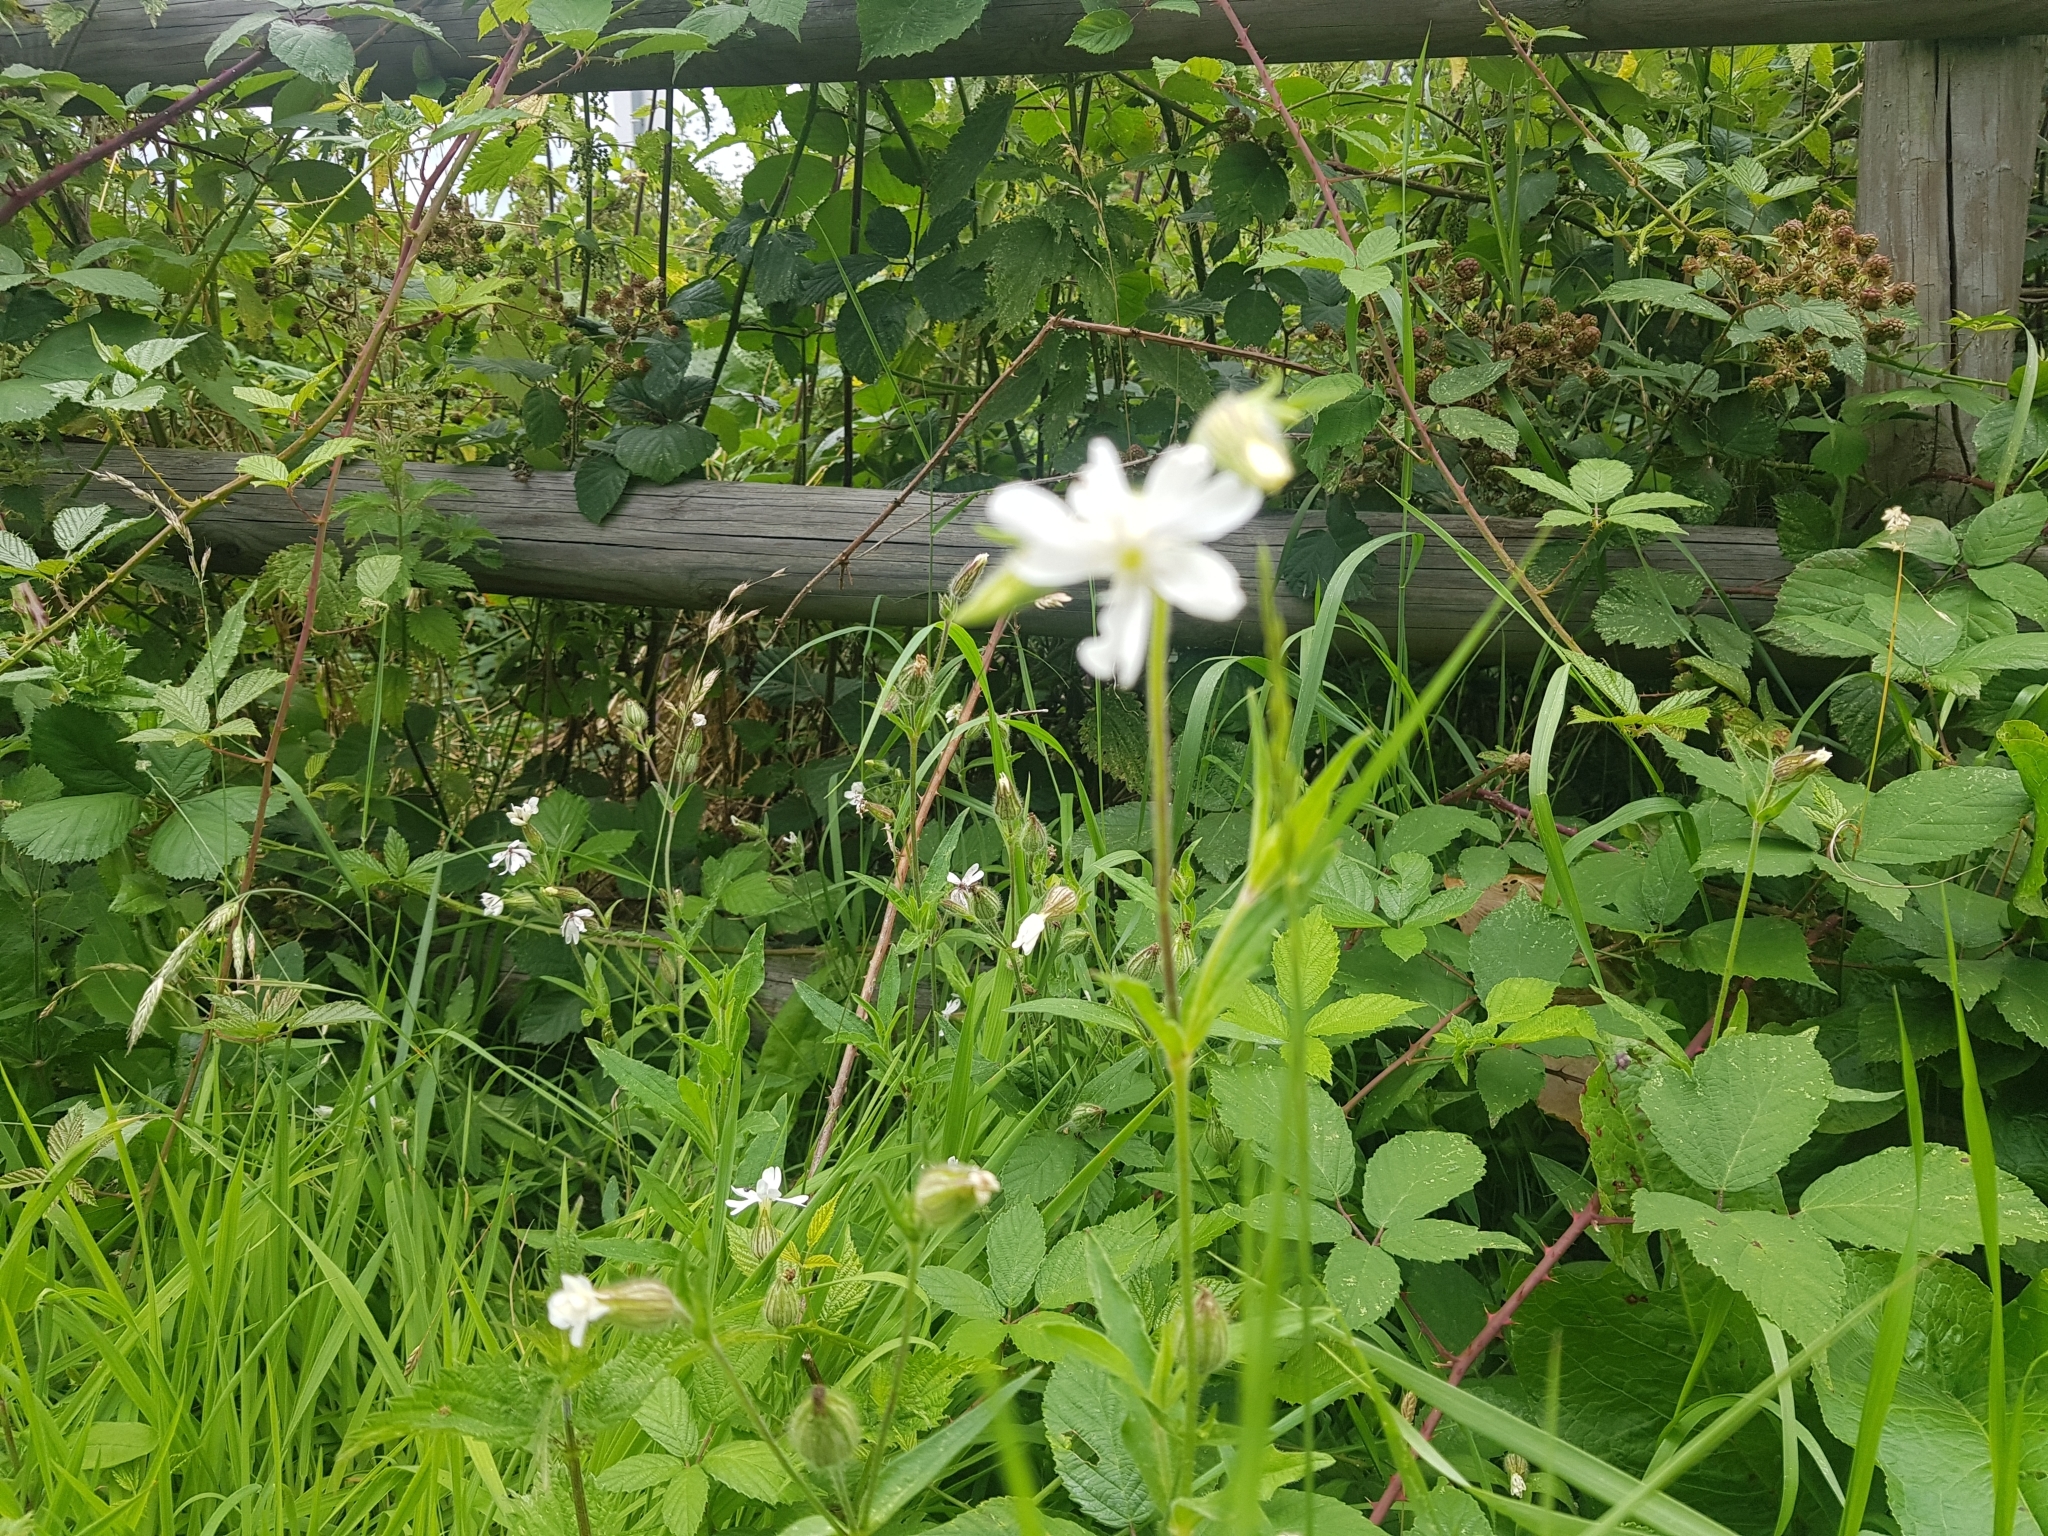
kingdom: Plantae
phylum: Tracheophyta
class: Magnoliopsida
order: Caryophyllales
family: Caryophyllaceae
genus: Silene
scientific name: Silene latifolia
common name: White campion
